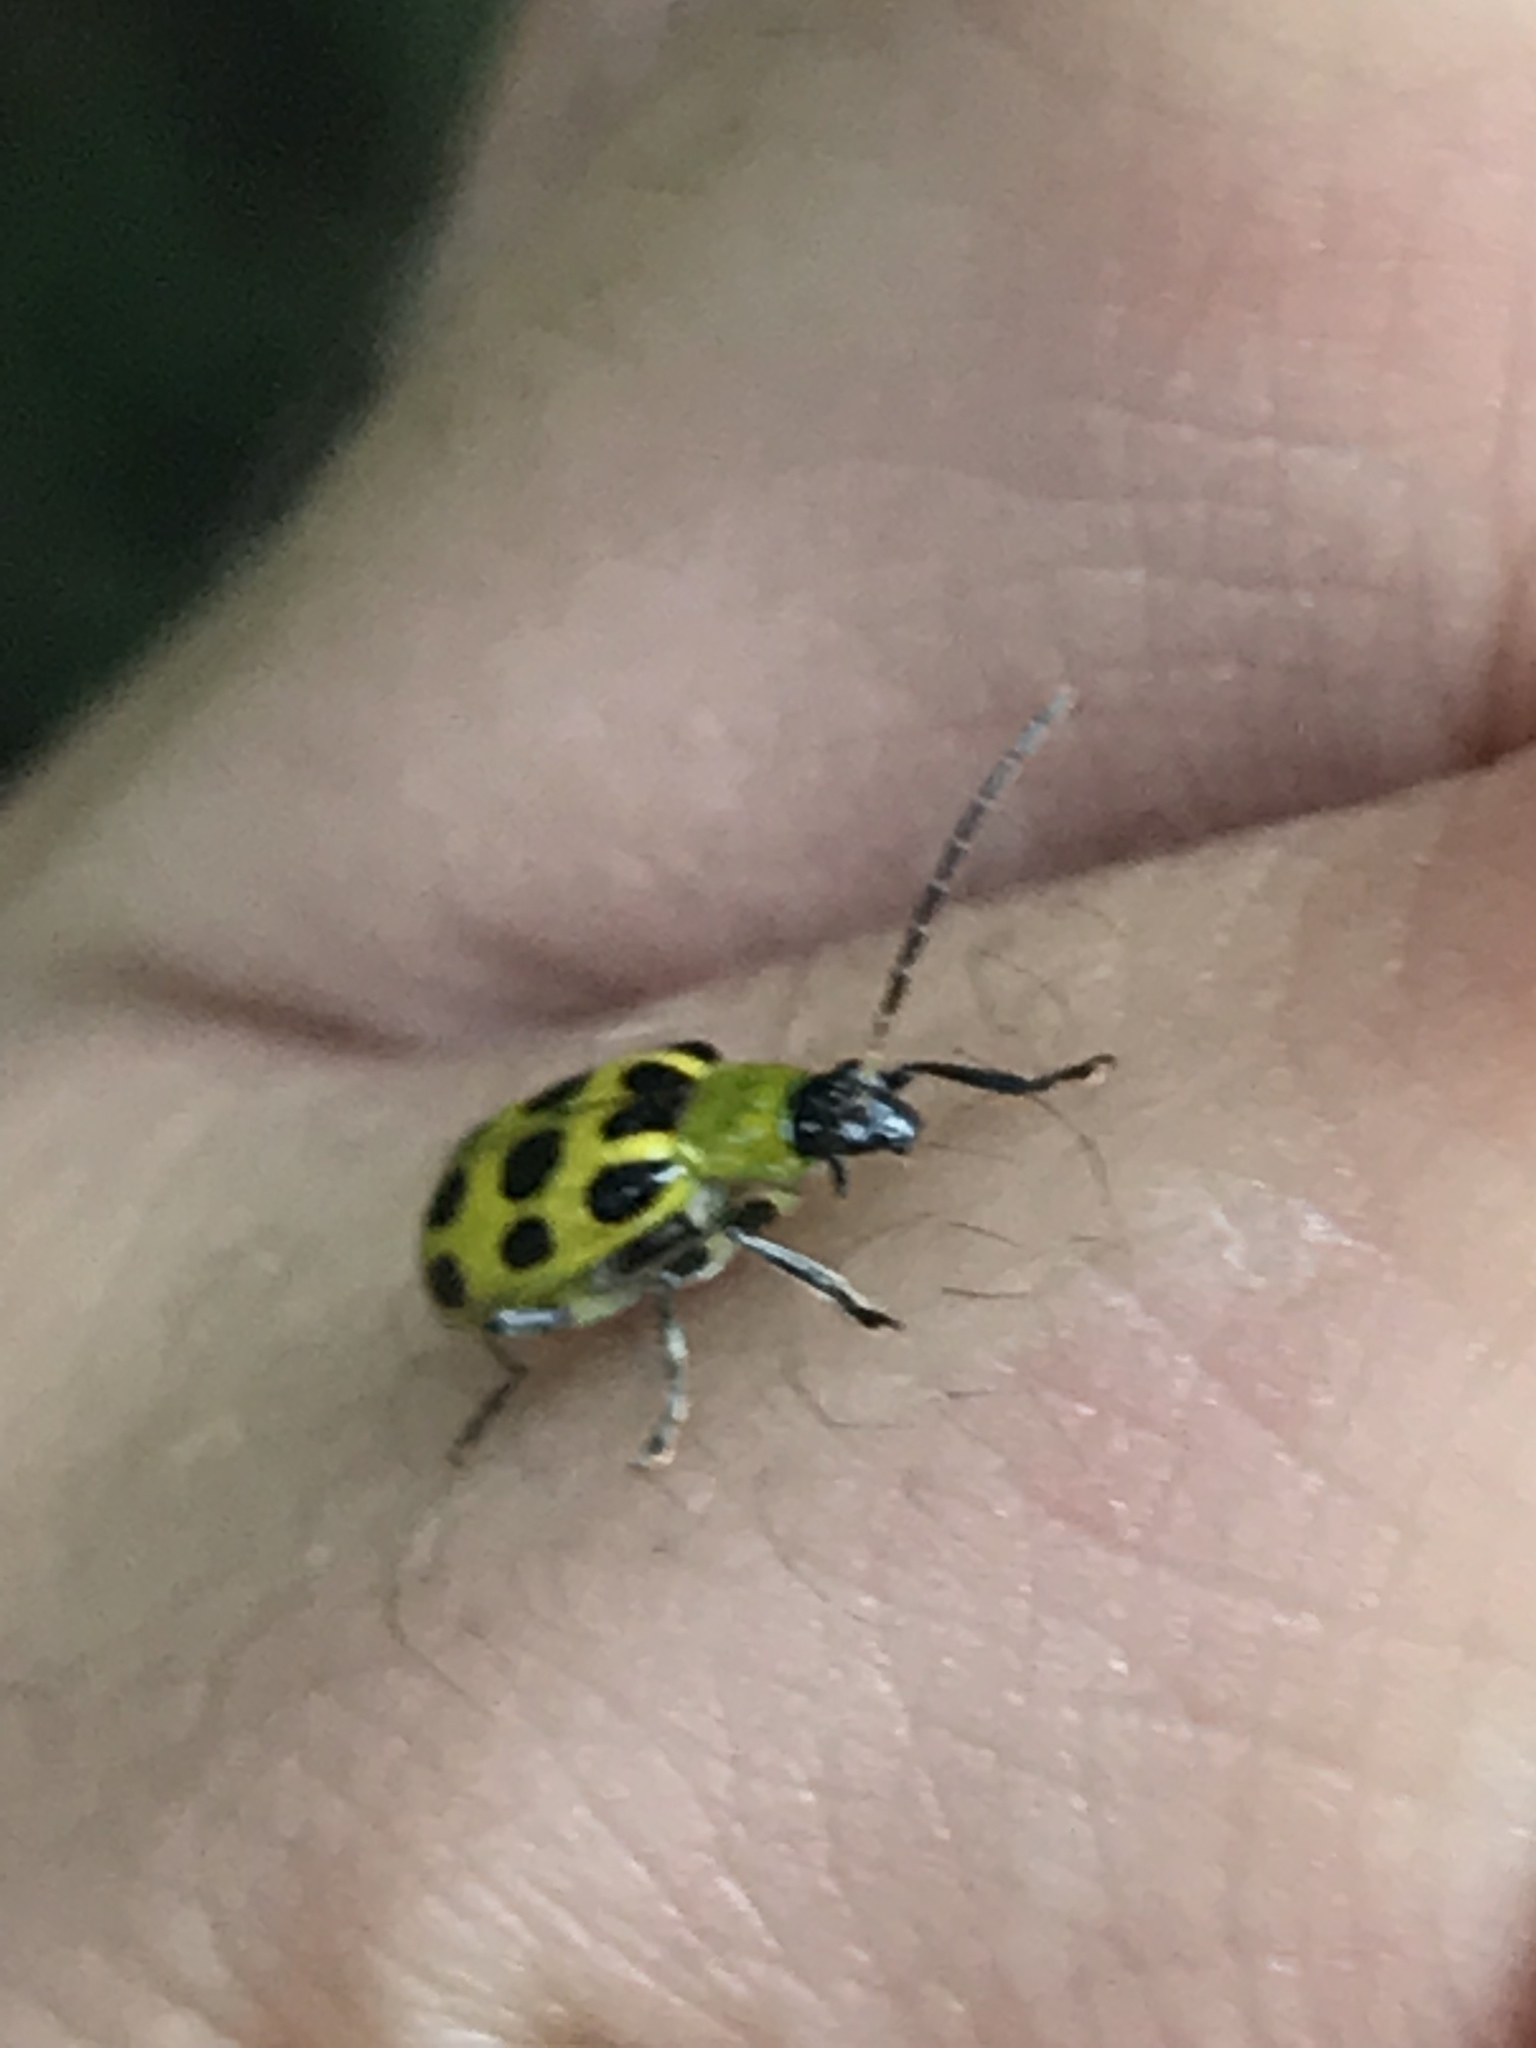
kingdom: Animalia
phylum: Arthropoda
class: Insecta
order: Coleoptera
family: Chrysomelidae
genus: Diabrotica
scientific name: Diabrotica undecimpunctata
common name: Spotted cucumber beetle
